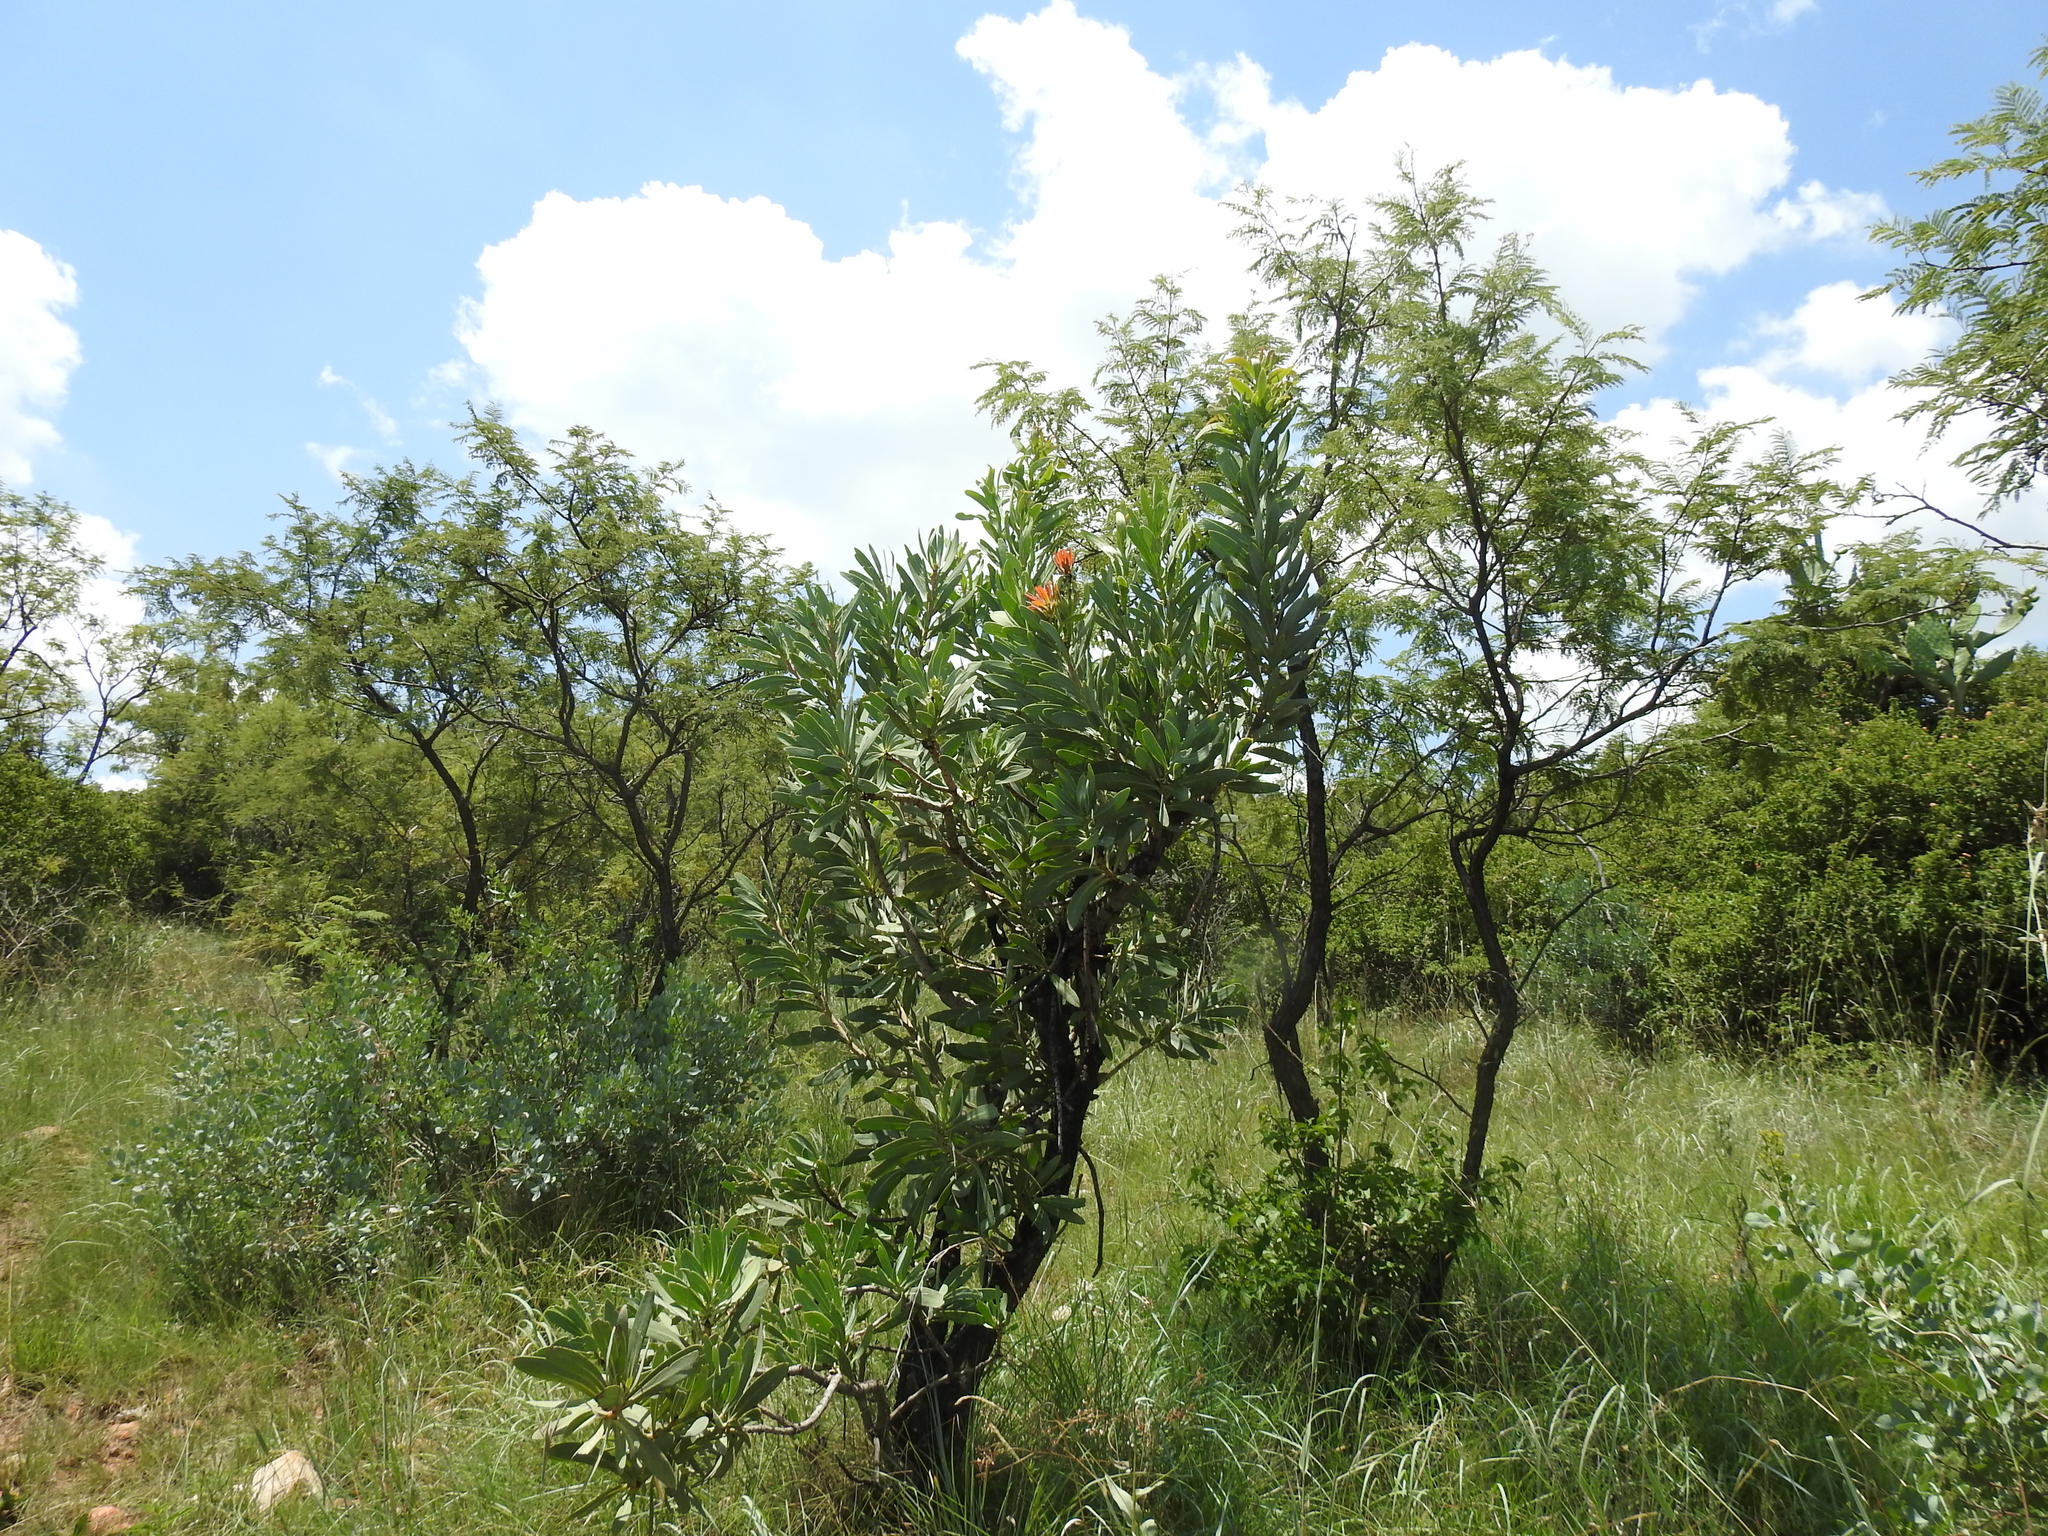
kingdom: Plantae
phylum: Tracheophyta
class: Magnoliopsida
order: Proteales
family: Proteaceae
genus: Protea
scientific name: Protea caffra
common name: Common sugarbush
